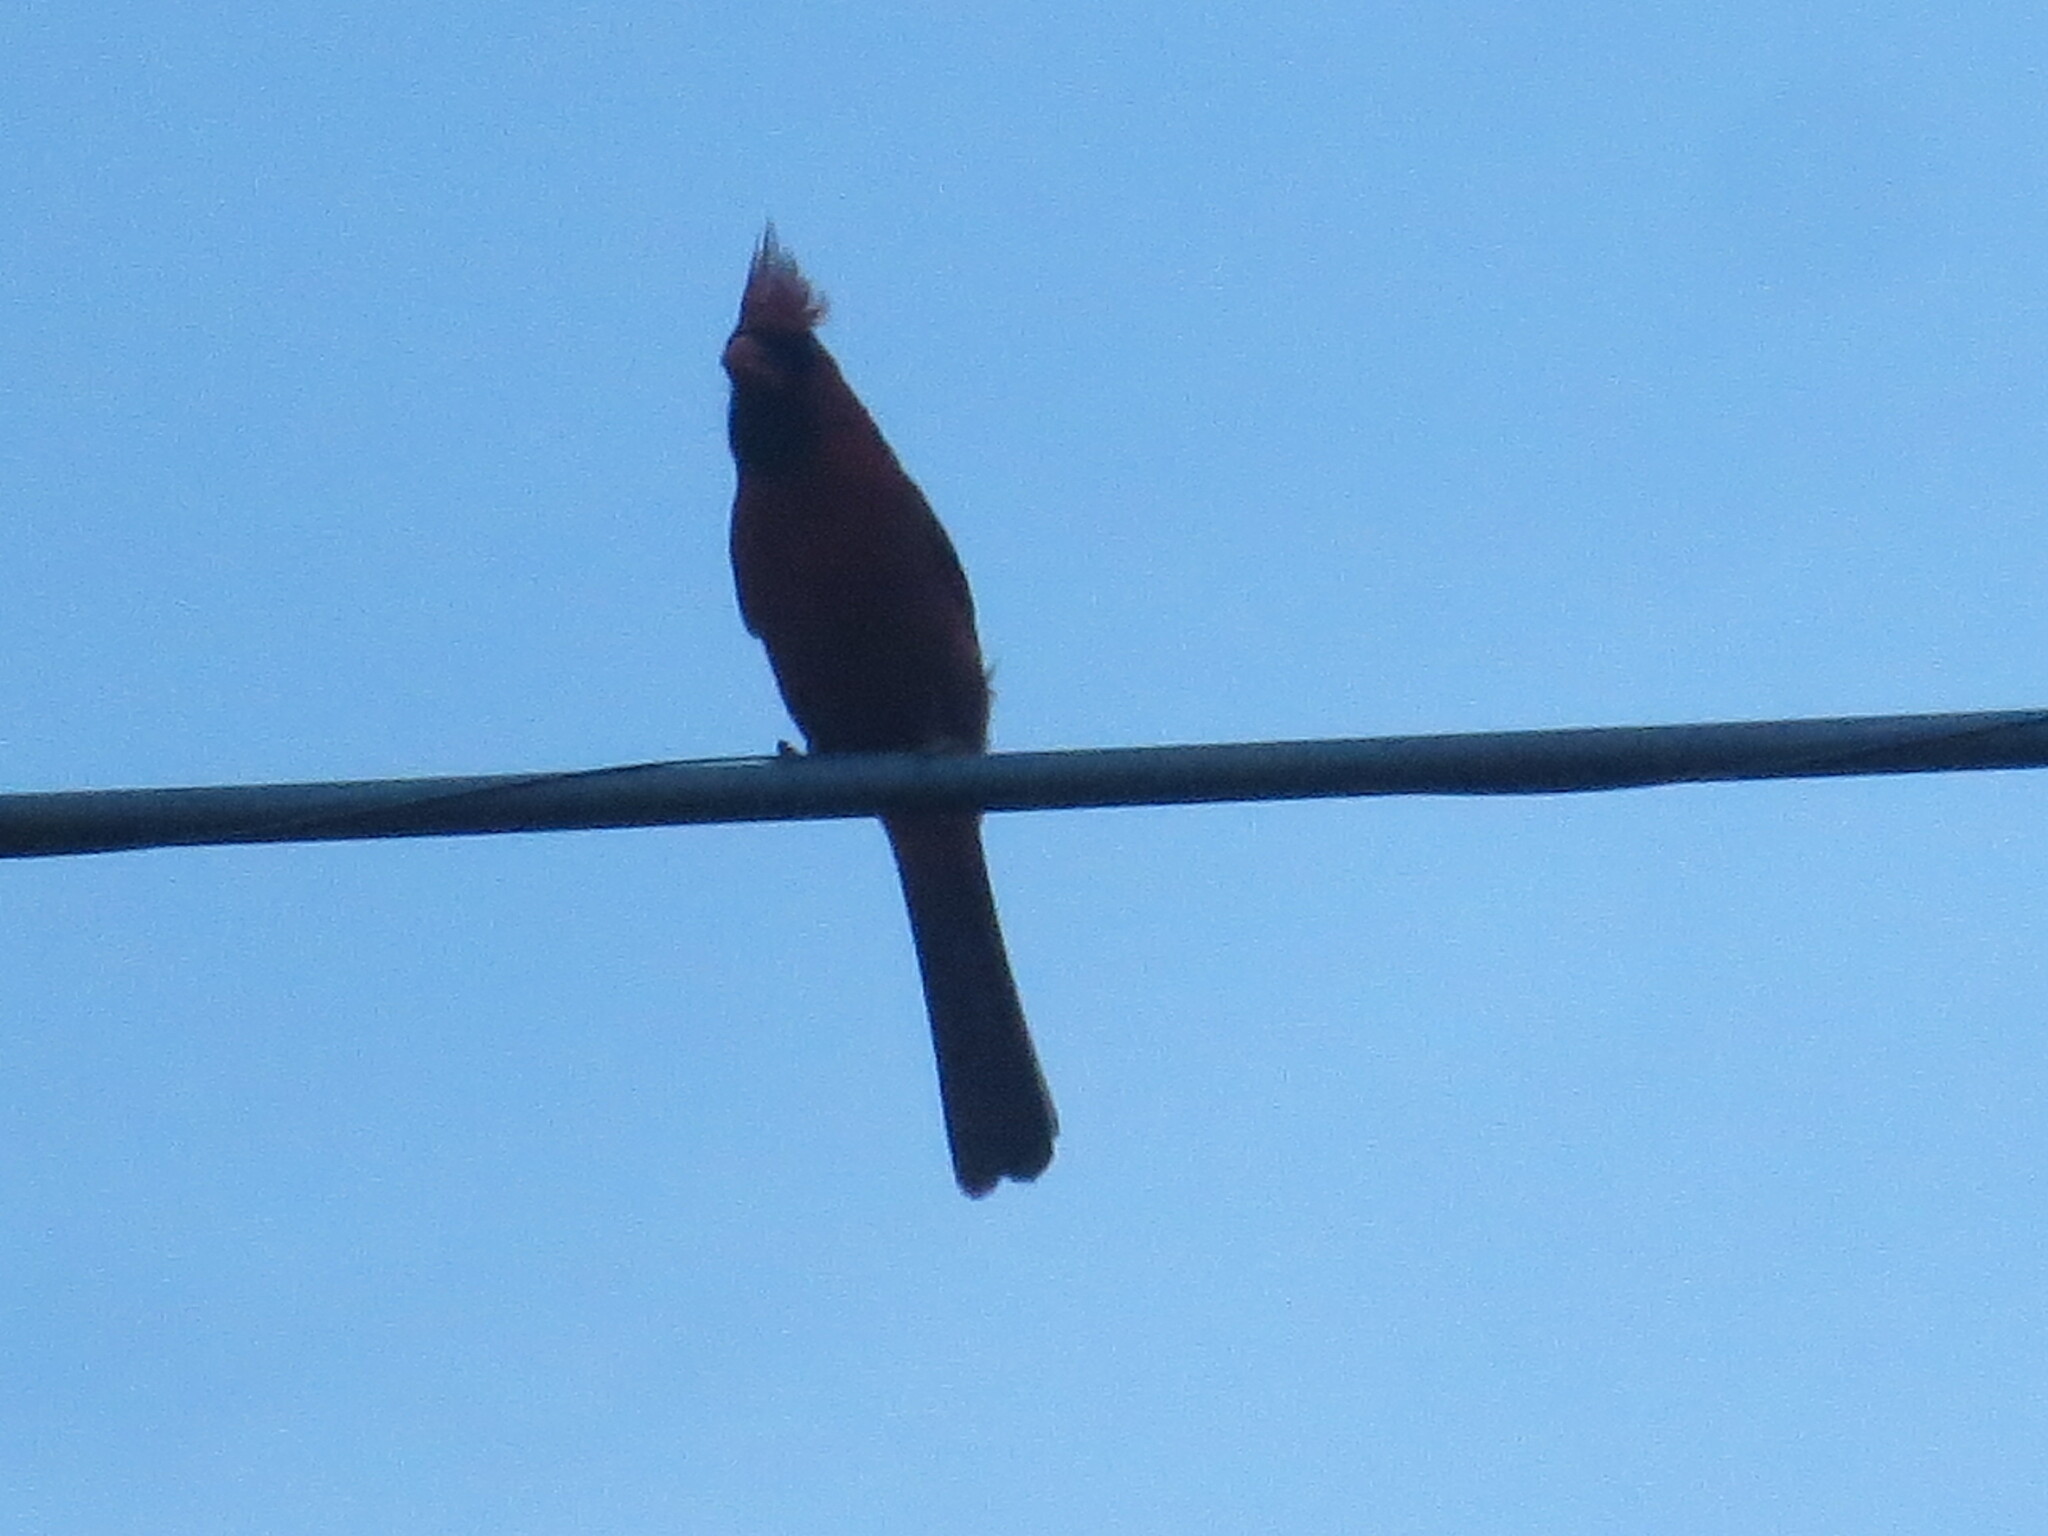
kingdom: Animalia
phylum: Chordata
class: Aves
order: Passeriformes
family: Cardinalidae
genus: Cardinalis
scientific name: Cardinalis cardinalis
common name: Northern cardinal
